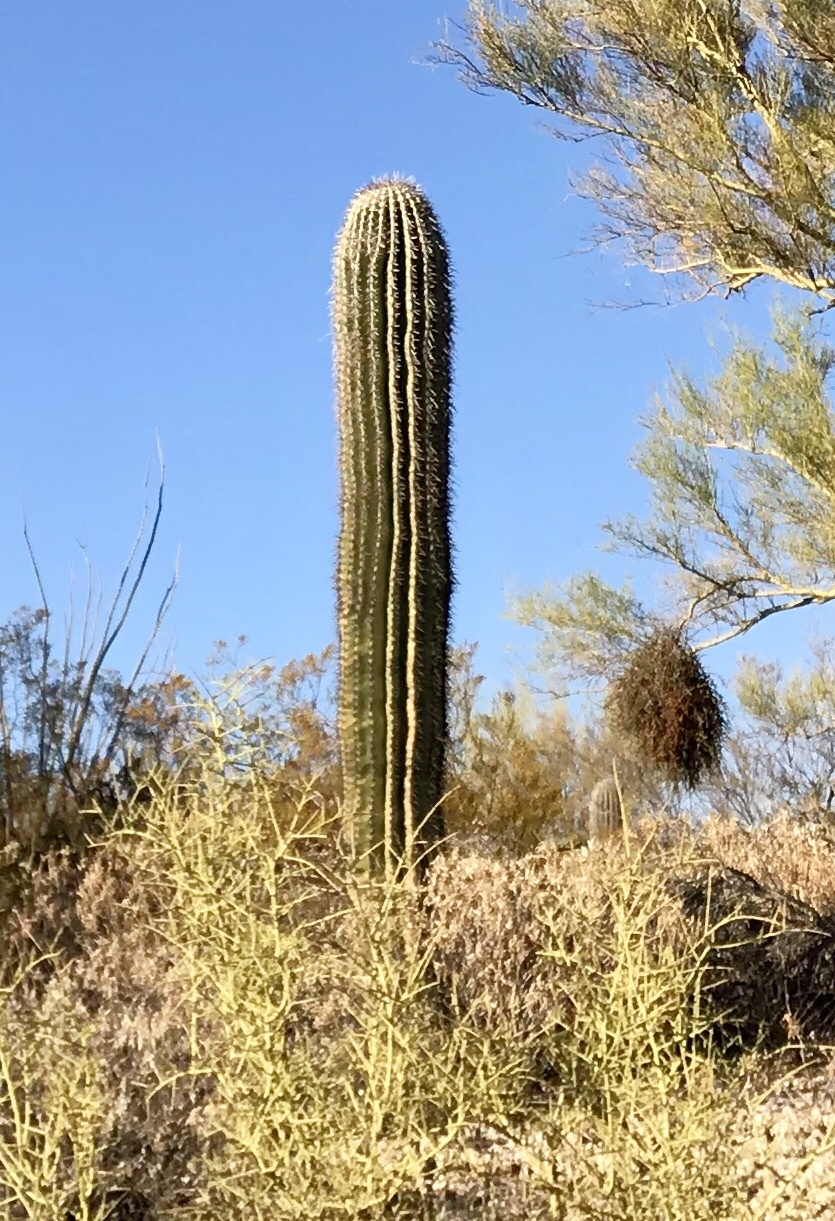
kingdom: Plantae
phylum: Tracheophyta
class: Magnoliopsida
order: Caryophyllales
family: Cactaceae
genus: Carnegiea
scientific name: Carnegiea gigantea
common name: Saguaro
